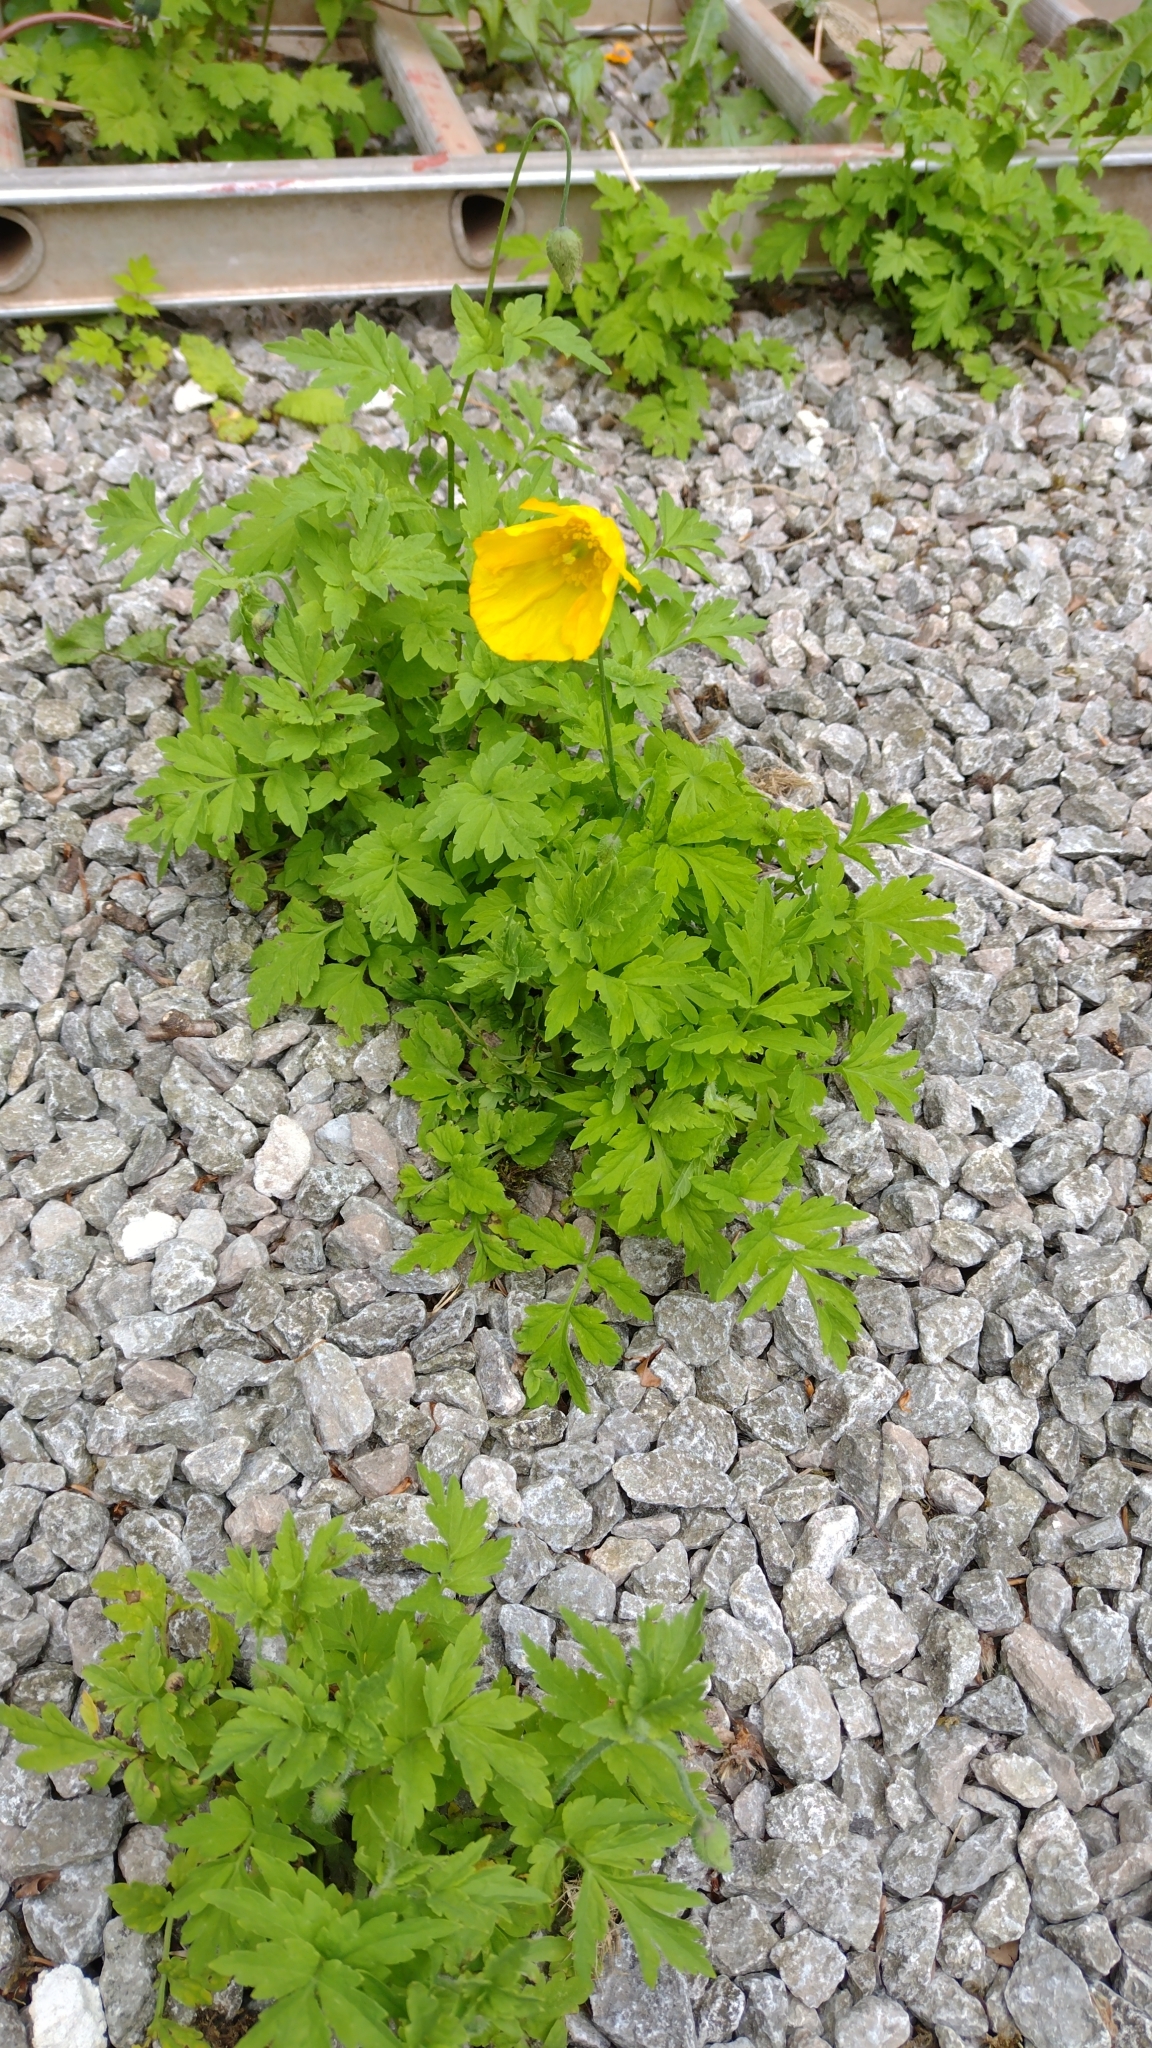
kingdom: Plantae
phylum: Tracheophyta
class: Magnoliopsida
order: Ranunculales
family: Papaveraceae
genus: Papaver
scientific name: Papaver cambricum
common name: Poppy
